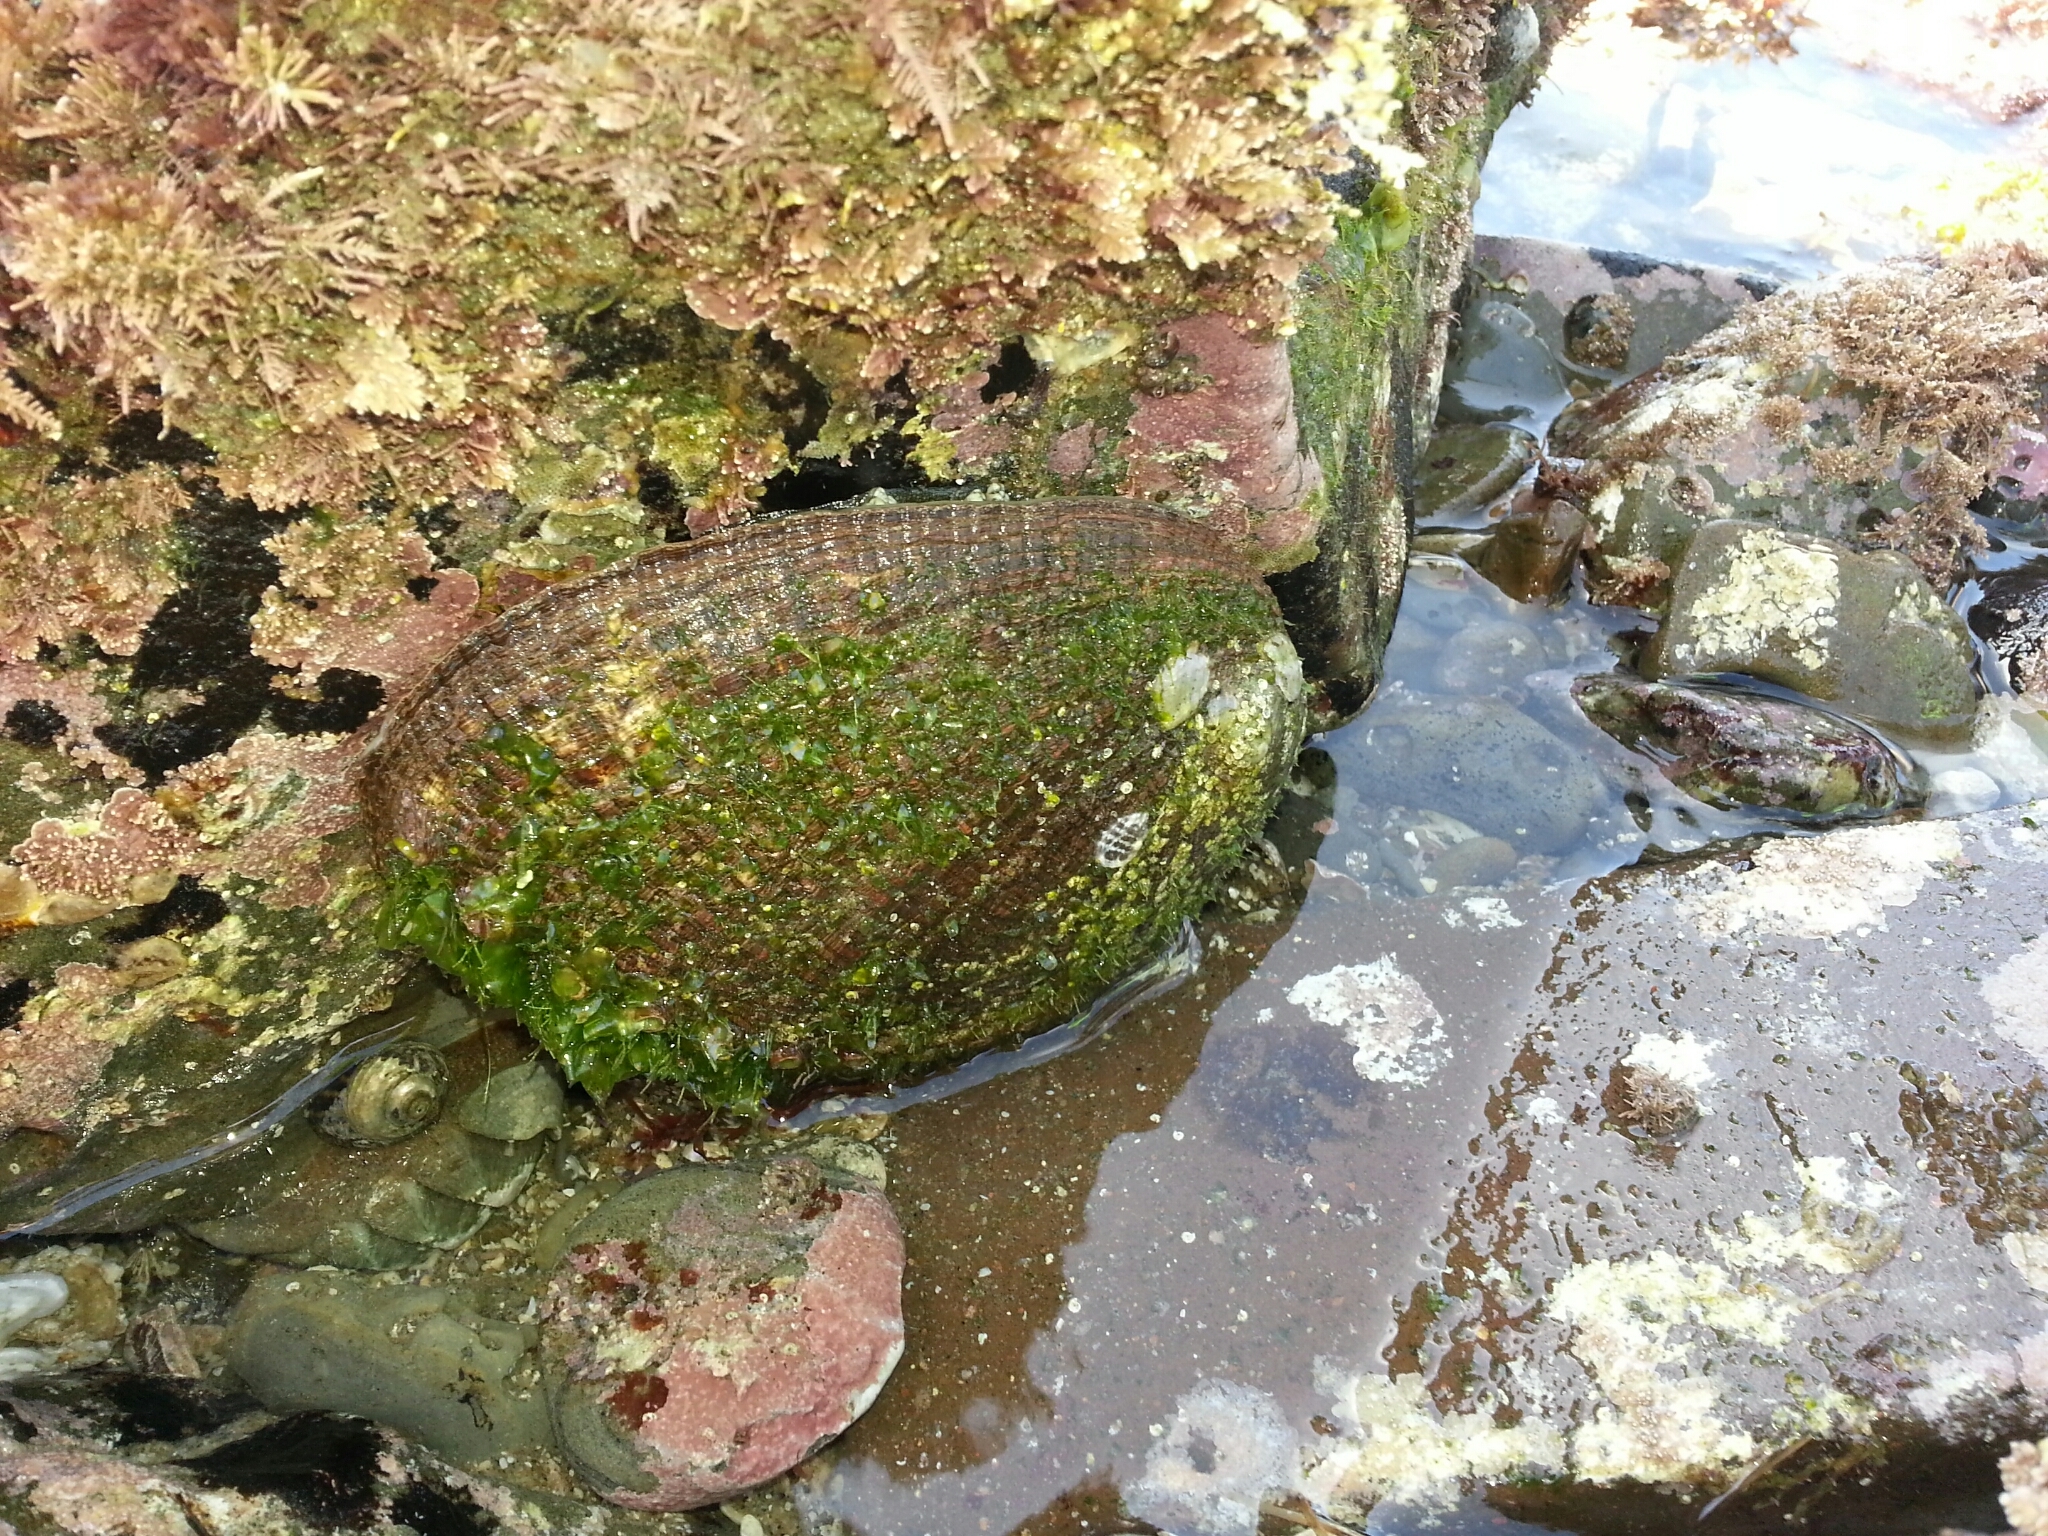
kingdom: Animalia
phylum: Mollusca
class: Gastropoda
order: Lepetellida
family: Haliotidae
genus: Haliotis
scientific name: Haliotis fulgens
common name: Green abalone
